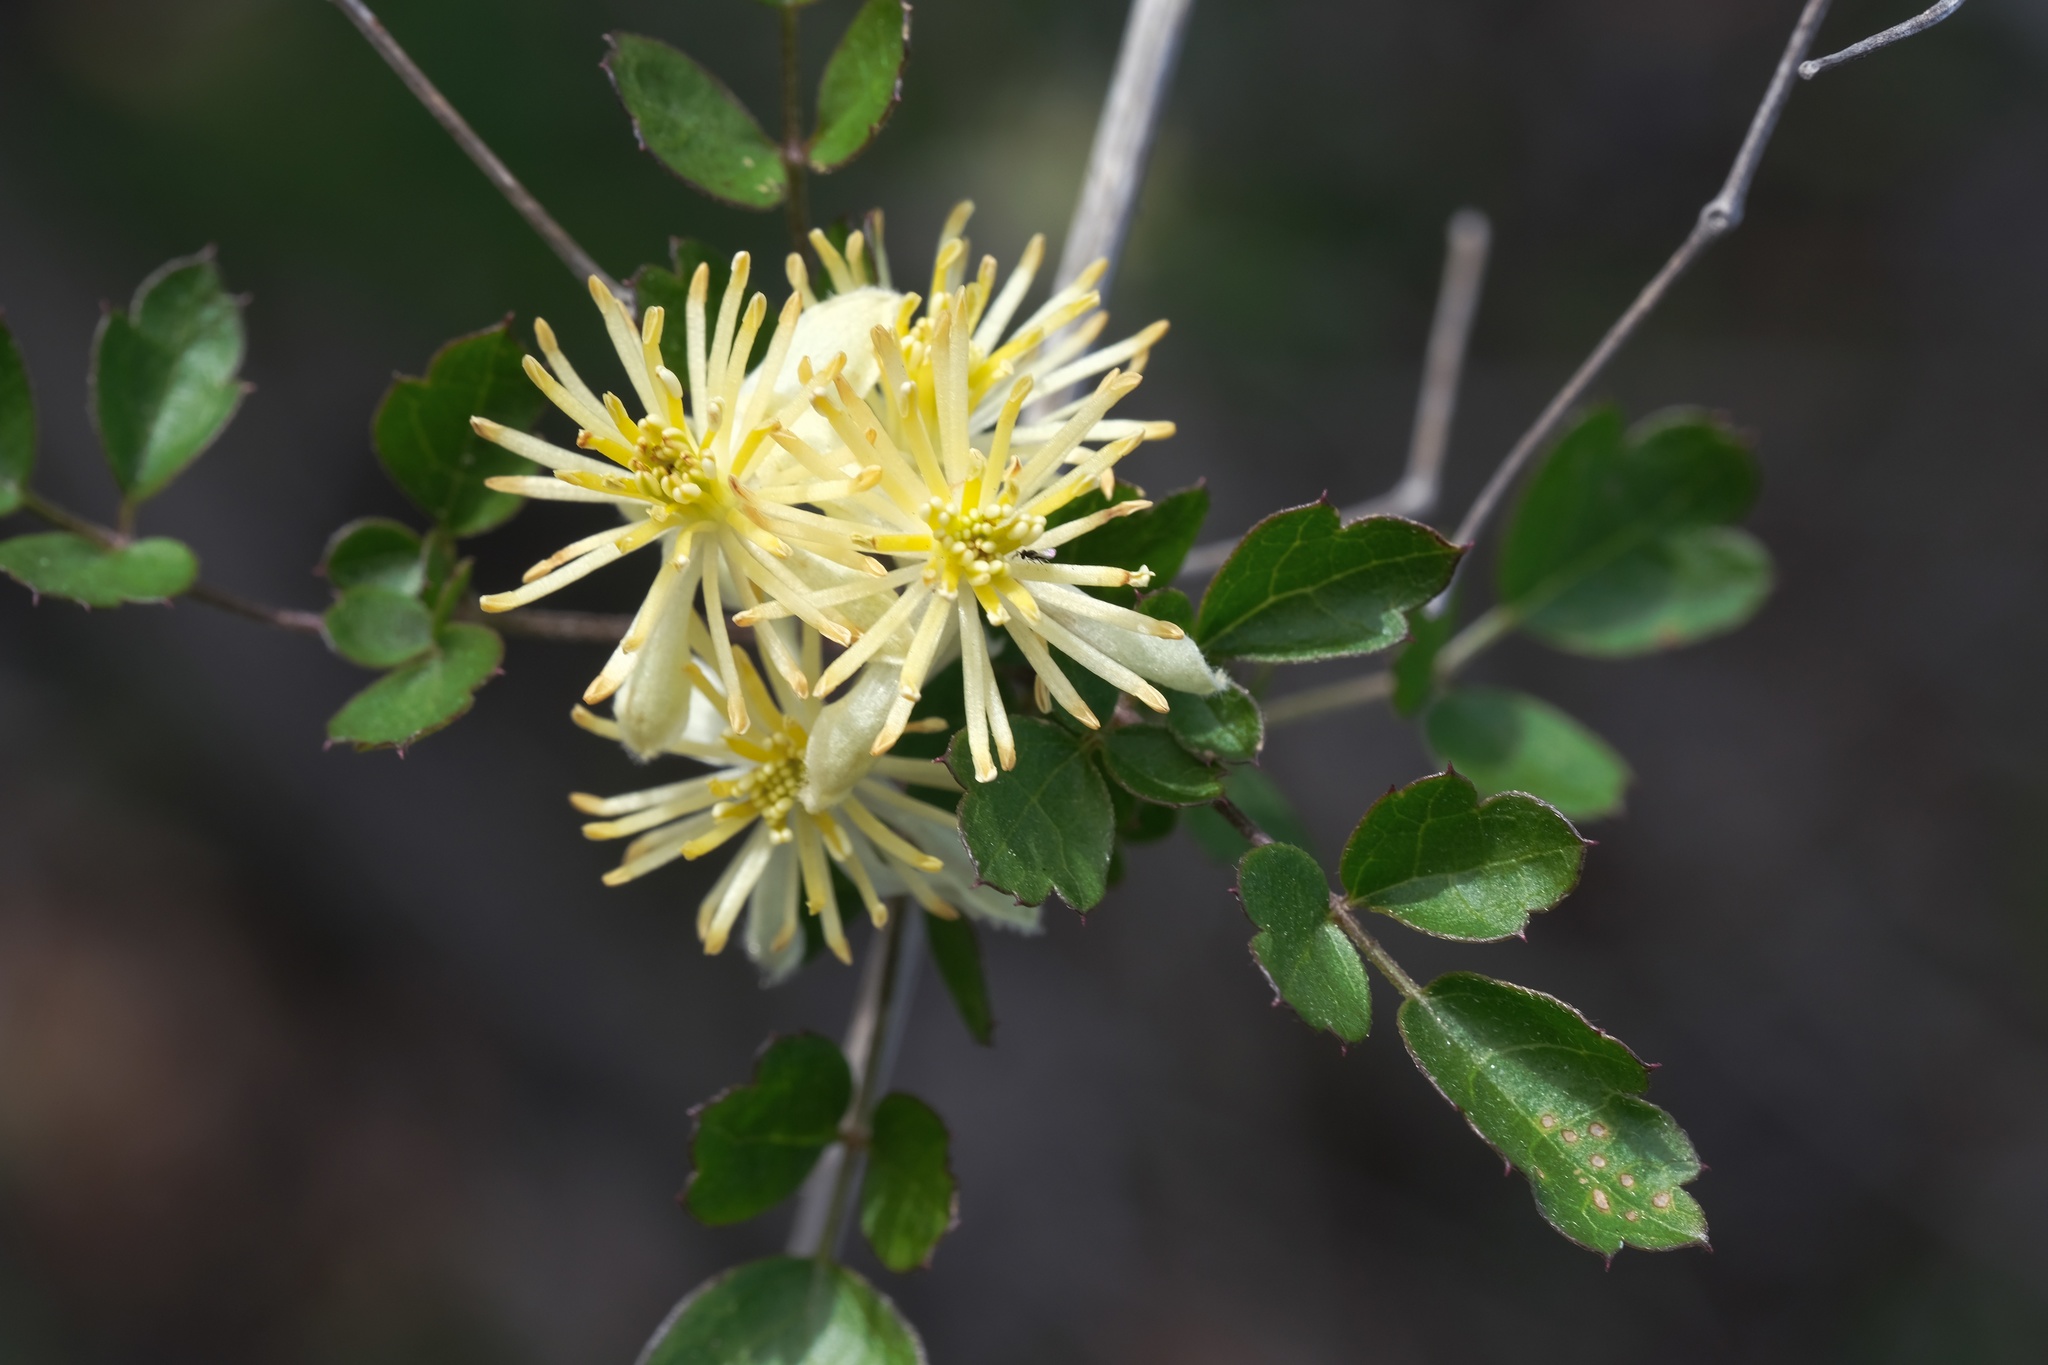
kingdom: Plantae
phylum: Tracheophyta
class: Magnoliopsida
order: Ranunculales
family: Ranunculaceae
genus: Clematis
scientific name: Clematis pauciflora
